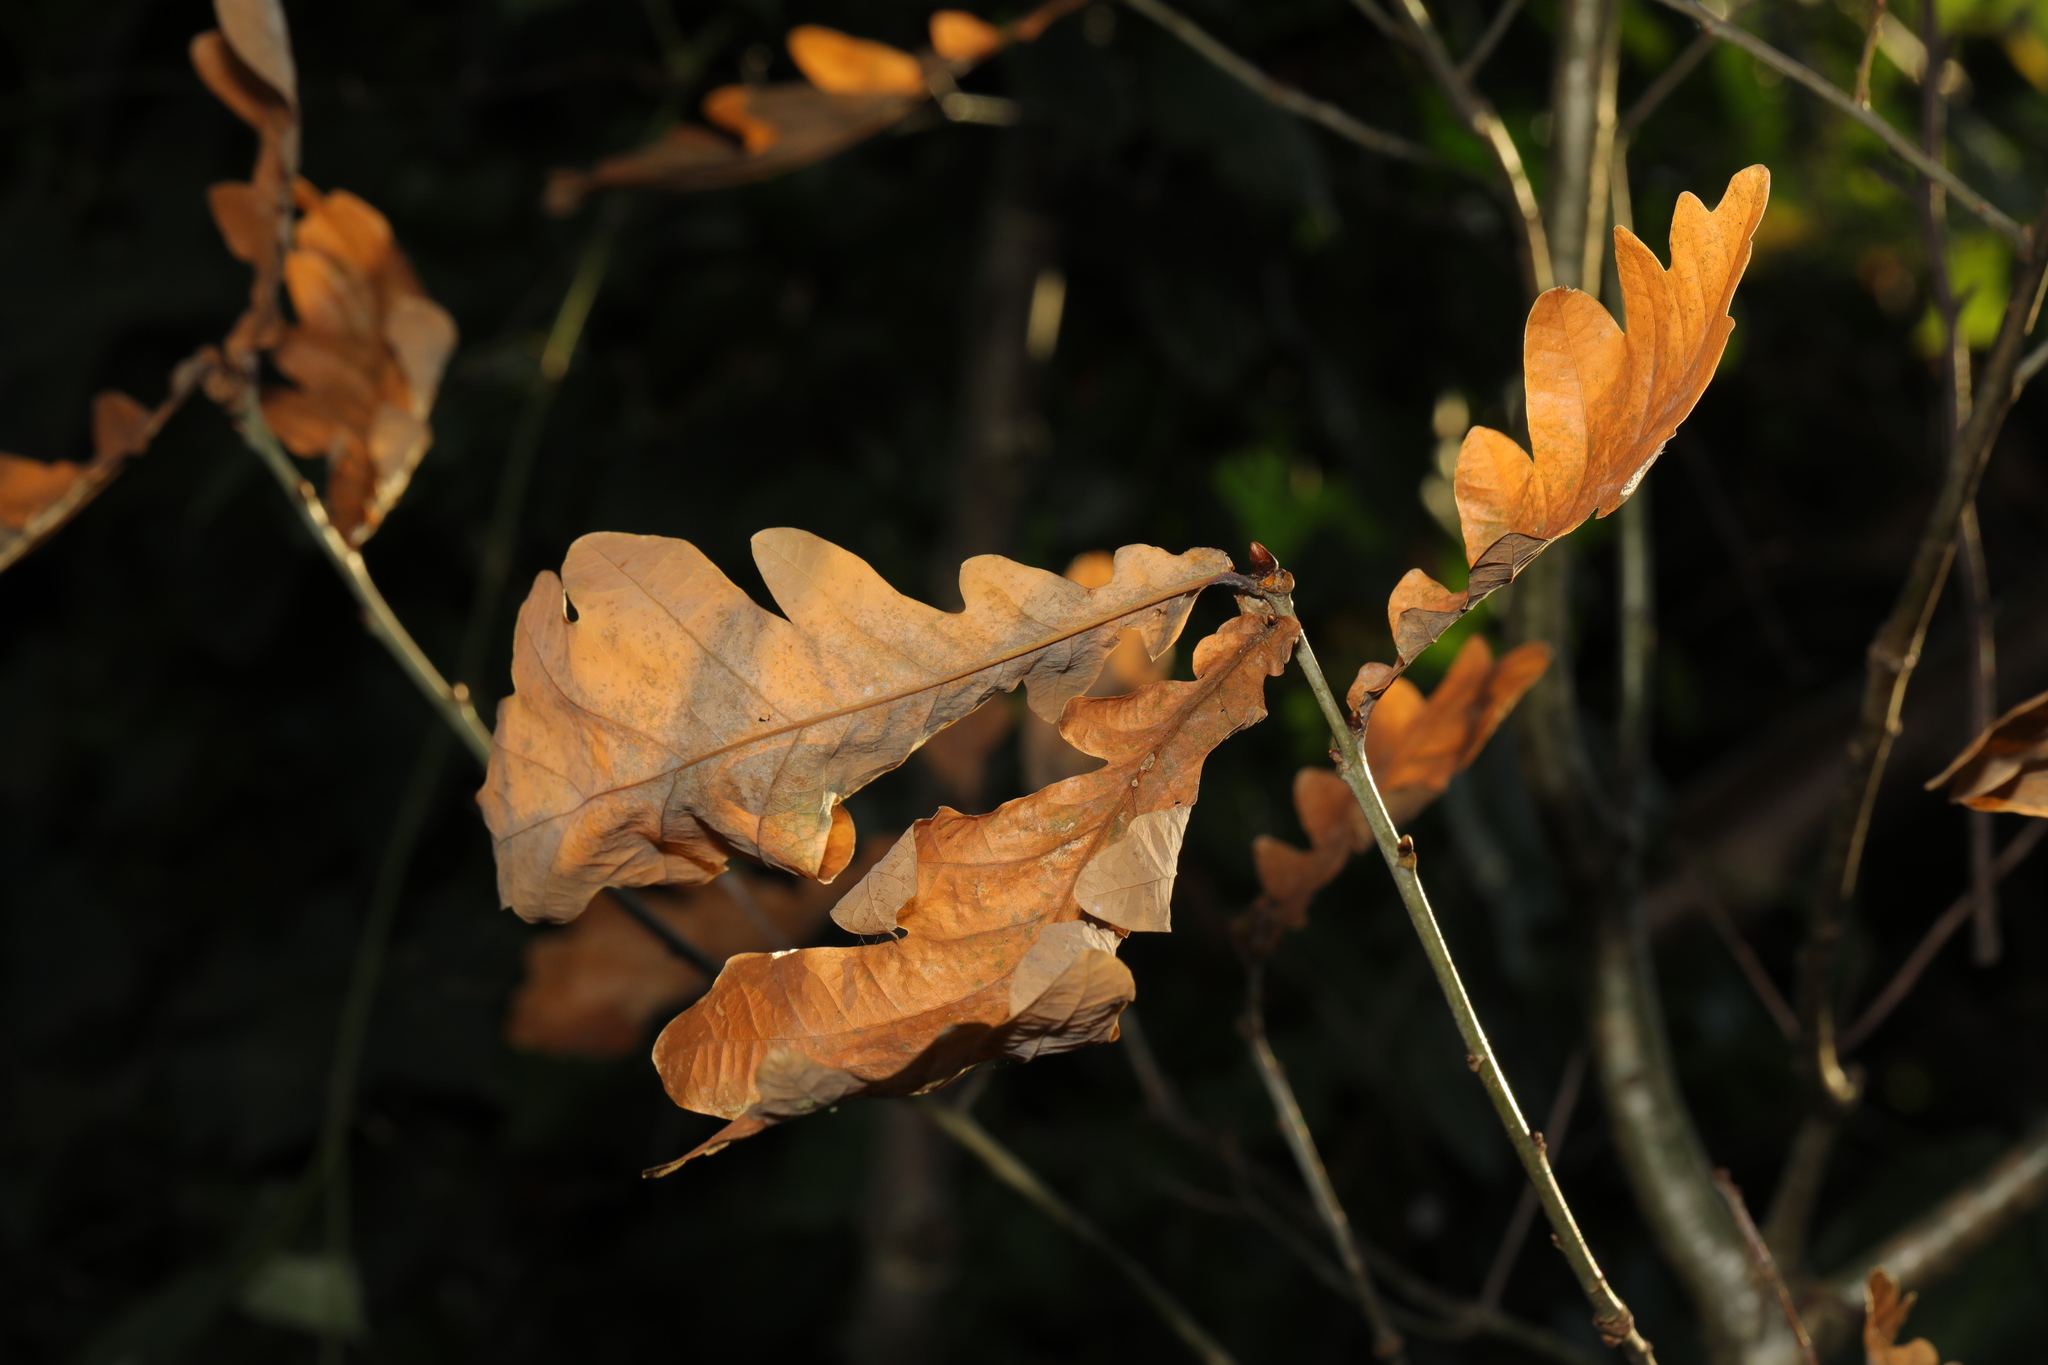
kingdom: Plantae
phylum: Tracheophyta
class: Magnoliopsida
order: Fagales
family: Fagaceae
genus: Quercus
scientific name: Quercus robur
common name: Pedunculate oak
